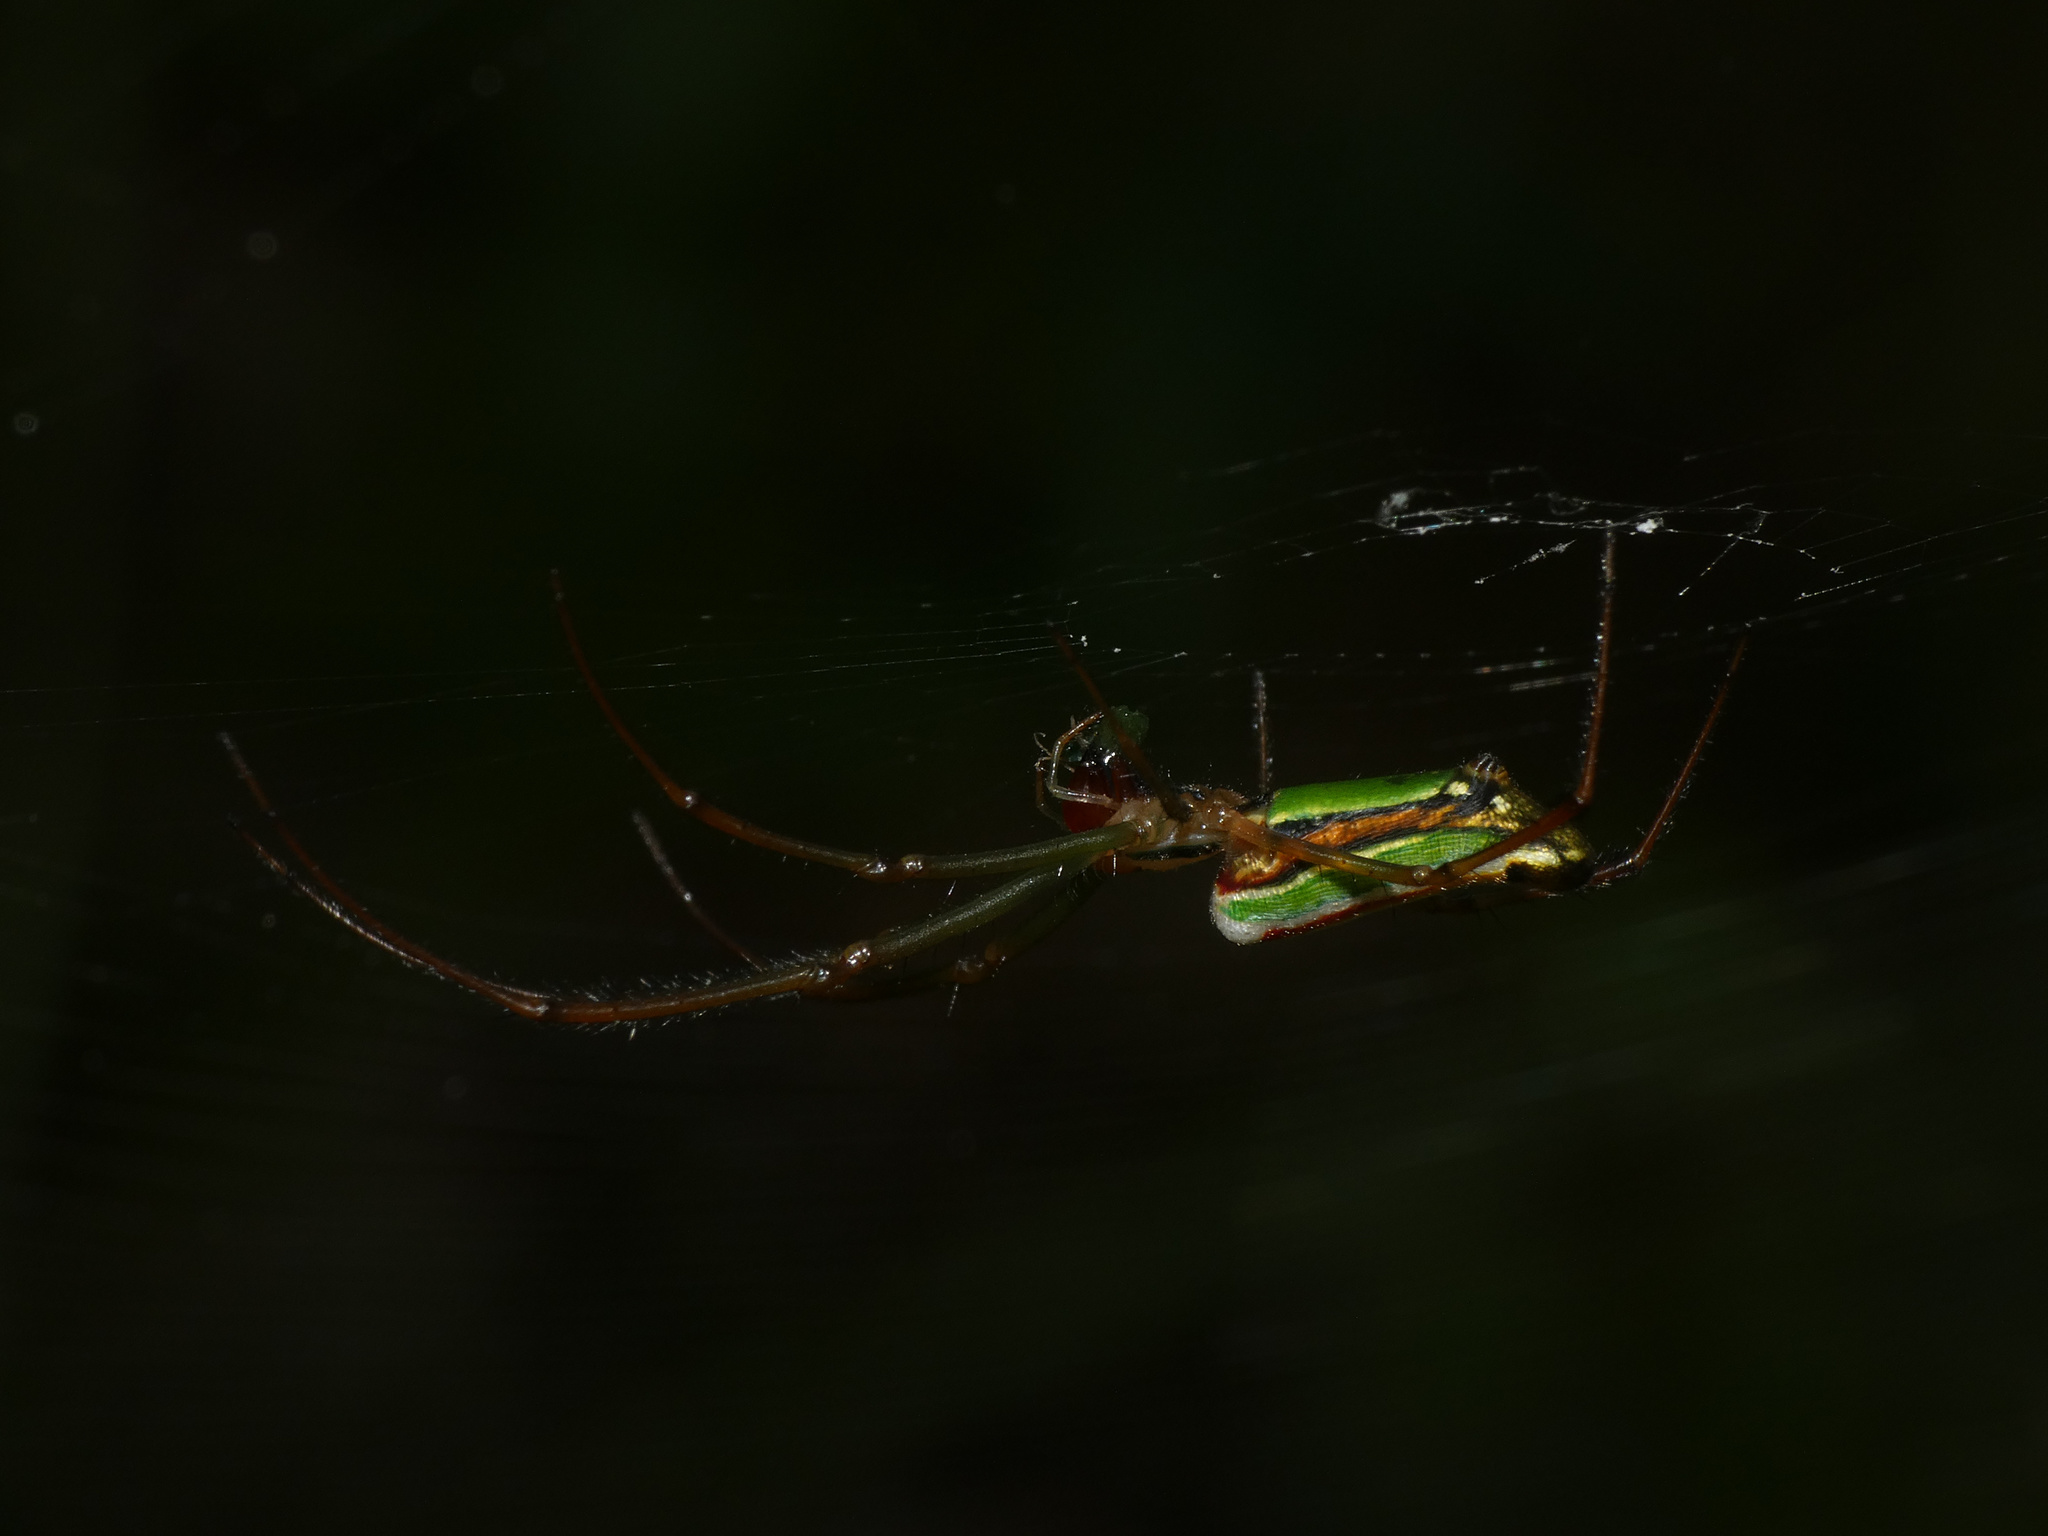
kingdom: Animalia
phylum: Arthropoda
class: Arachnida
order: Araneae
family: Tetragnathidae
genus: Leucauge
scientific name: Leucauge levanderi
